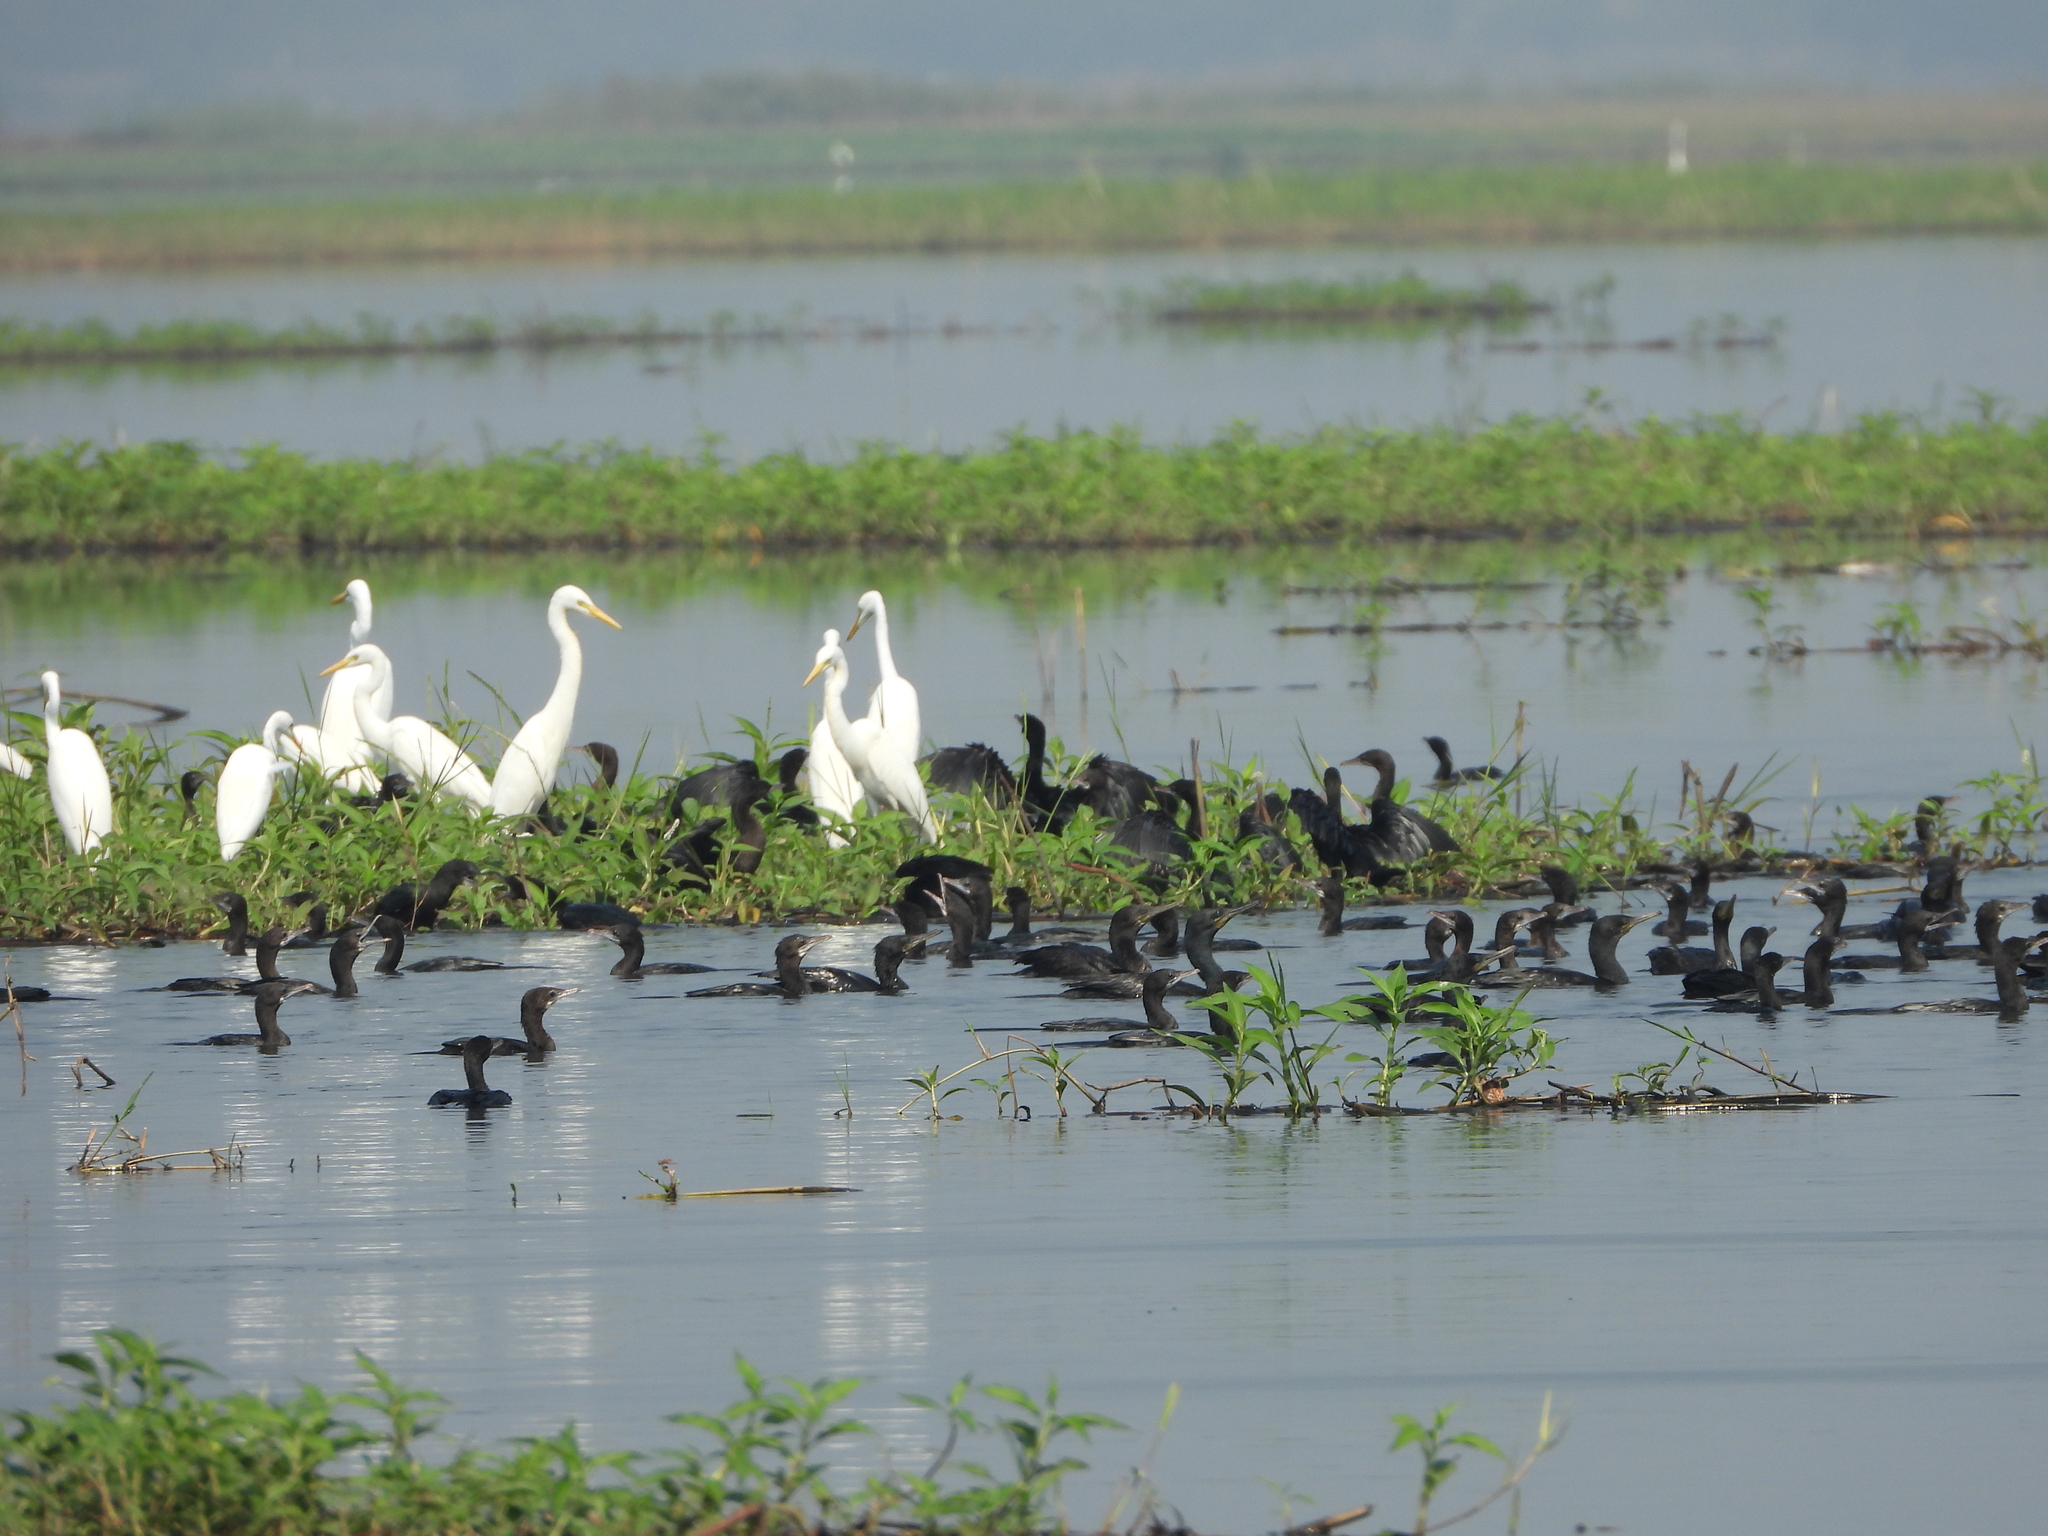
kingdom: Animalia
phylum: Chordata
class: Aves
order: Suliformes
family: Phalacrocoracidae
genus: Phalacrocorax
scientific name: Phalacrocorax fuscicollis
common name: Indian cormorant
